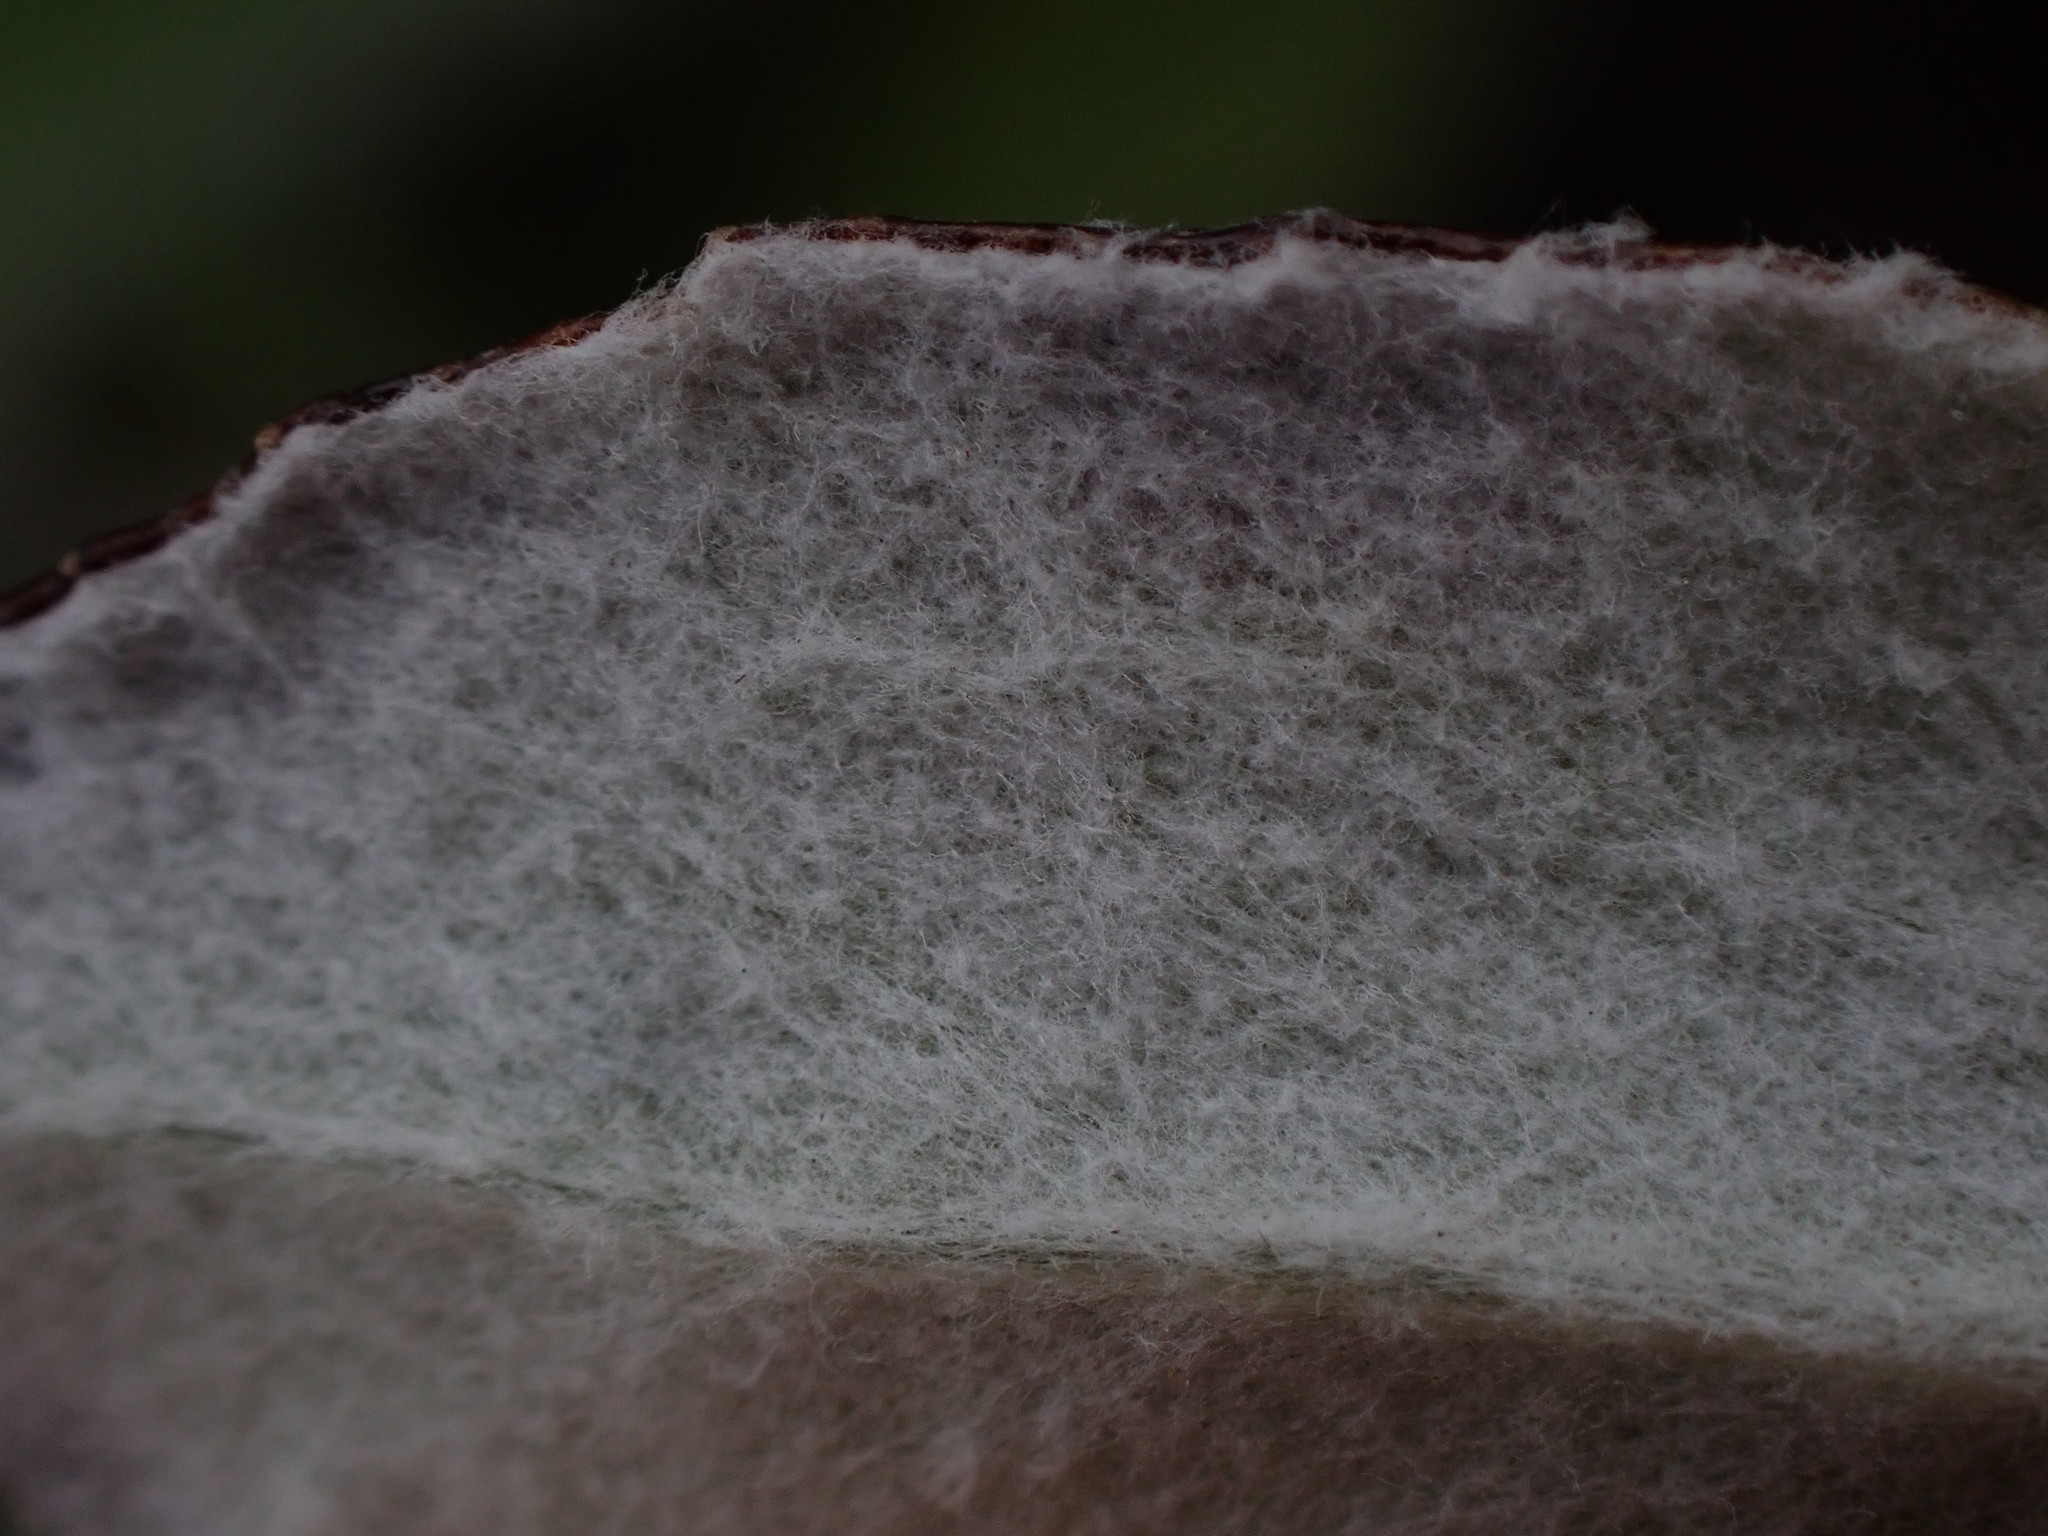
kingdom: Plantae
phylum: Tracheophyta
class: Magnoliopsida
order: Asterales
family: Asteraceae
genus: Luina
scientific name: Luina hypoleuca
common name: Little-leaved luina
